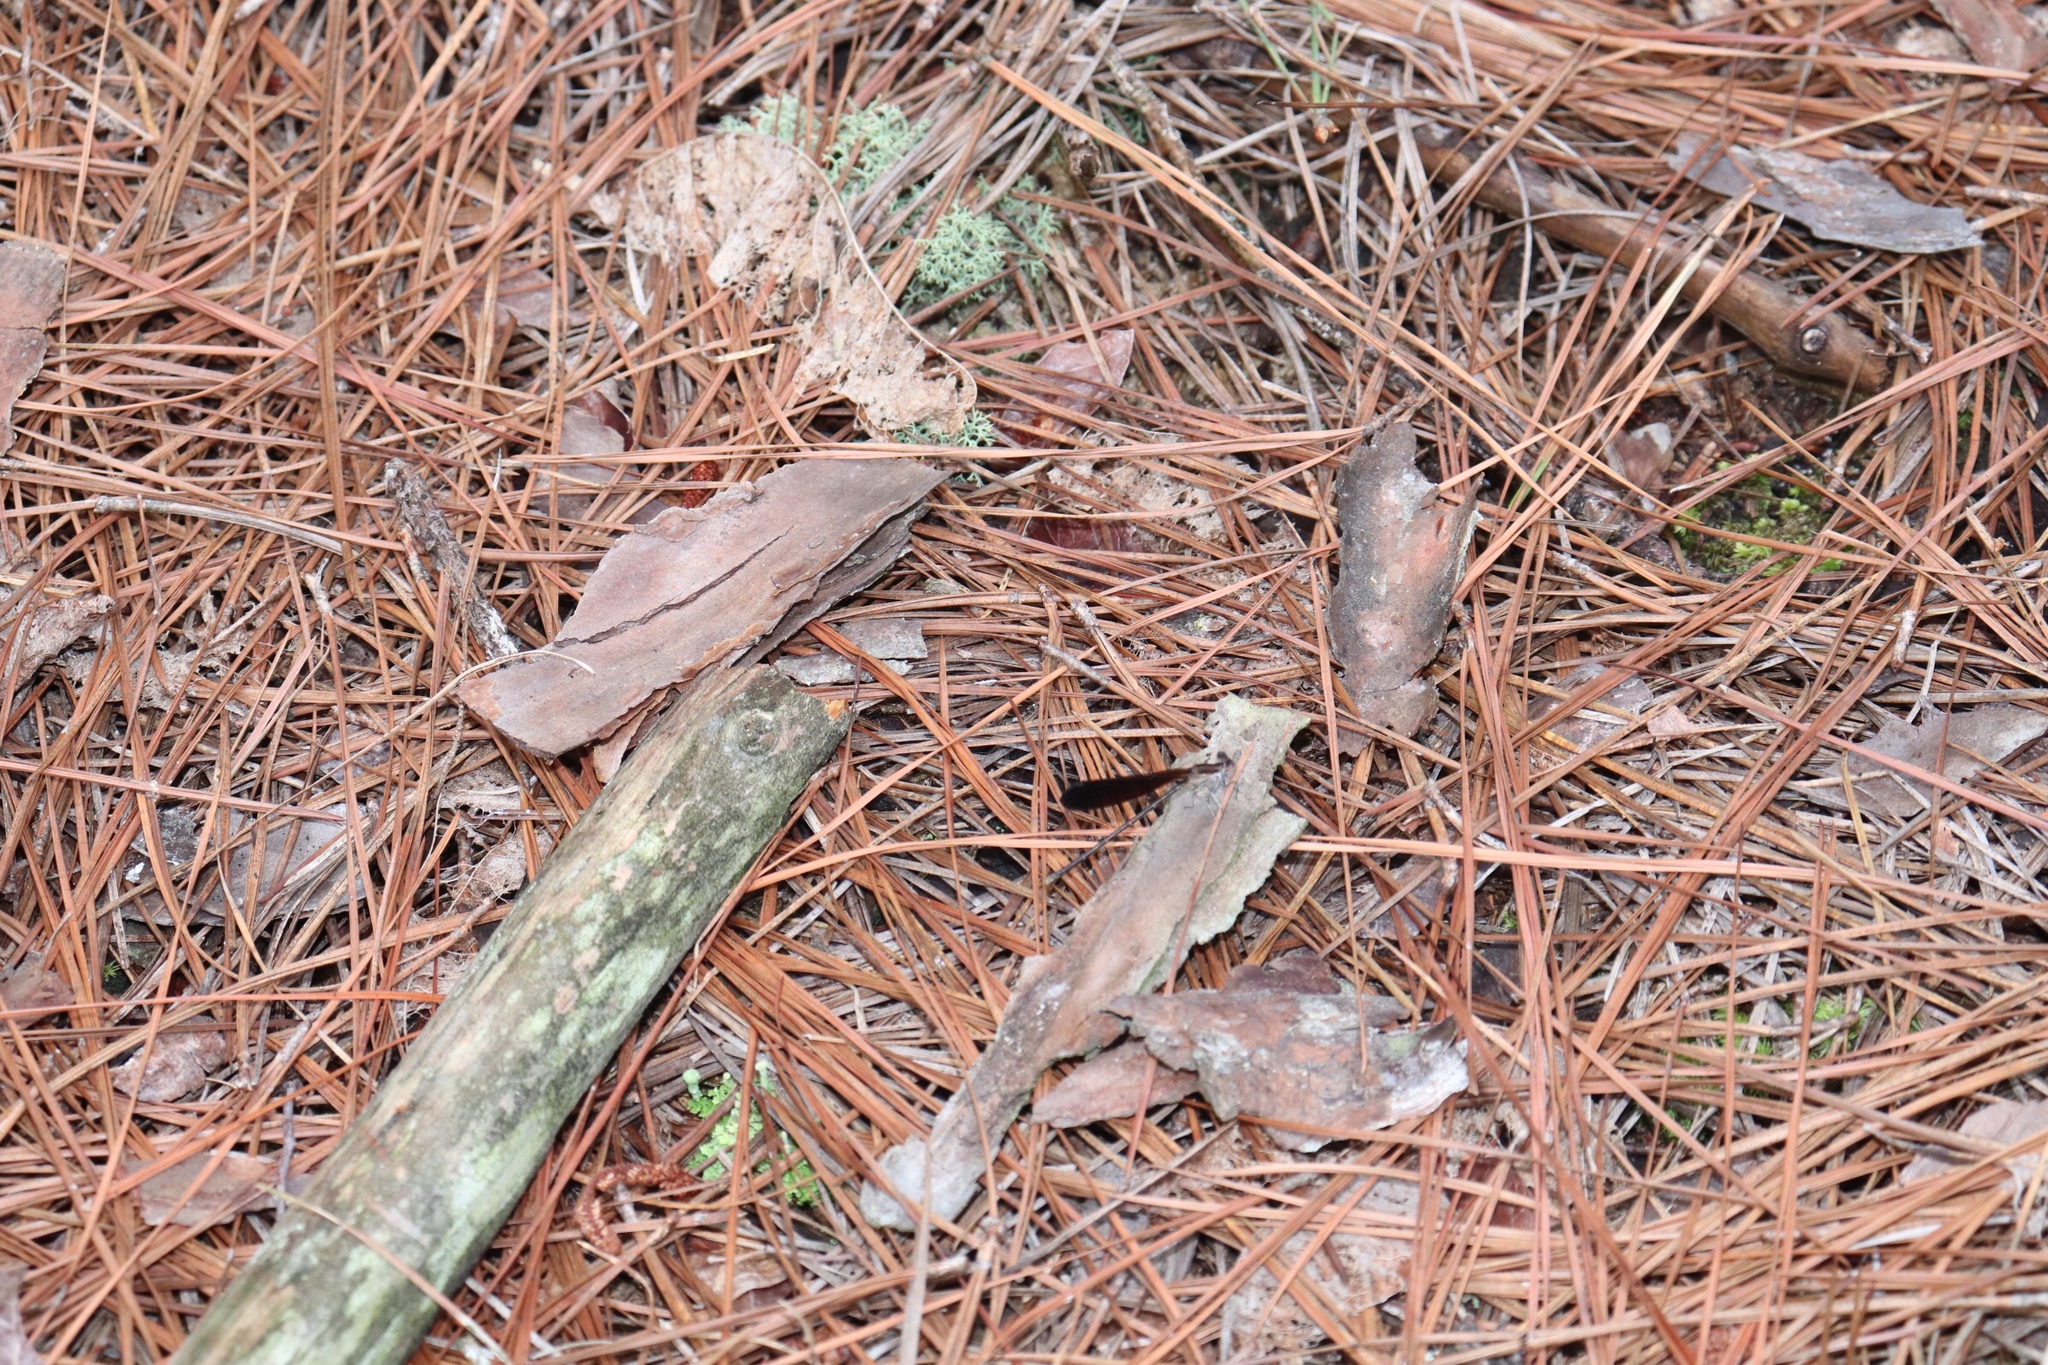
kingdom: Animalia
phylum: Arthropoda
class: Insecta
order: Odonata
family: Coenagrionidae
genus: Argia
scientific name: Argia fumipennis
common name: Variable dancer
